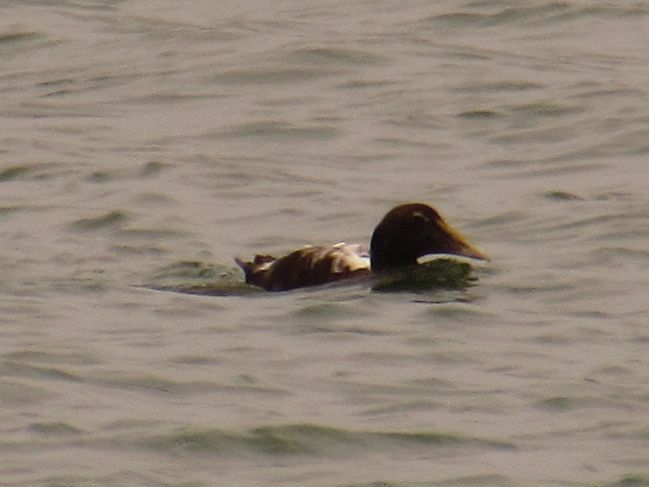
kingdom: Animalia
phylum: Chordata
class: Aves
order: Anseriformes
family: Anatidae
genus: Somateria
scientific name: Somateria mollissima
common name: Common eider
